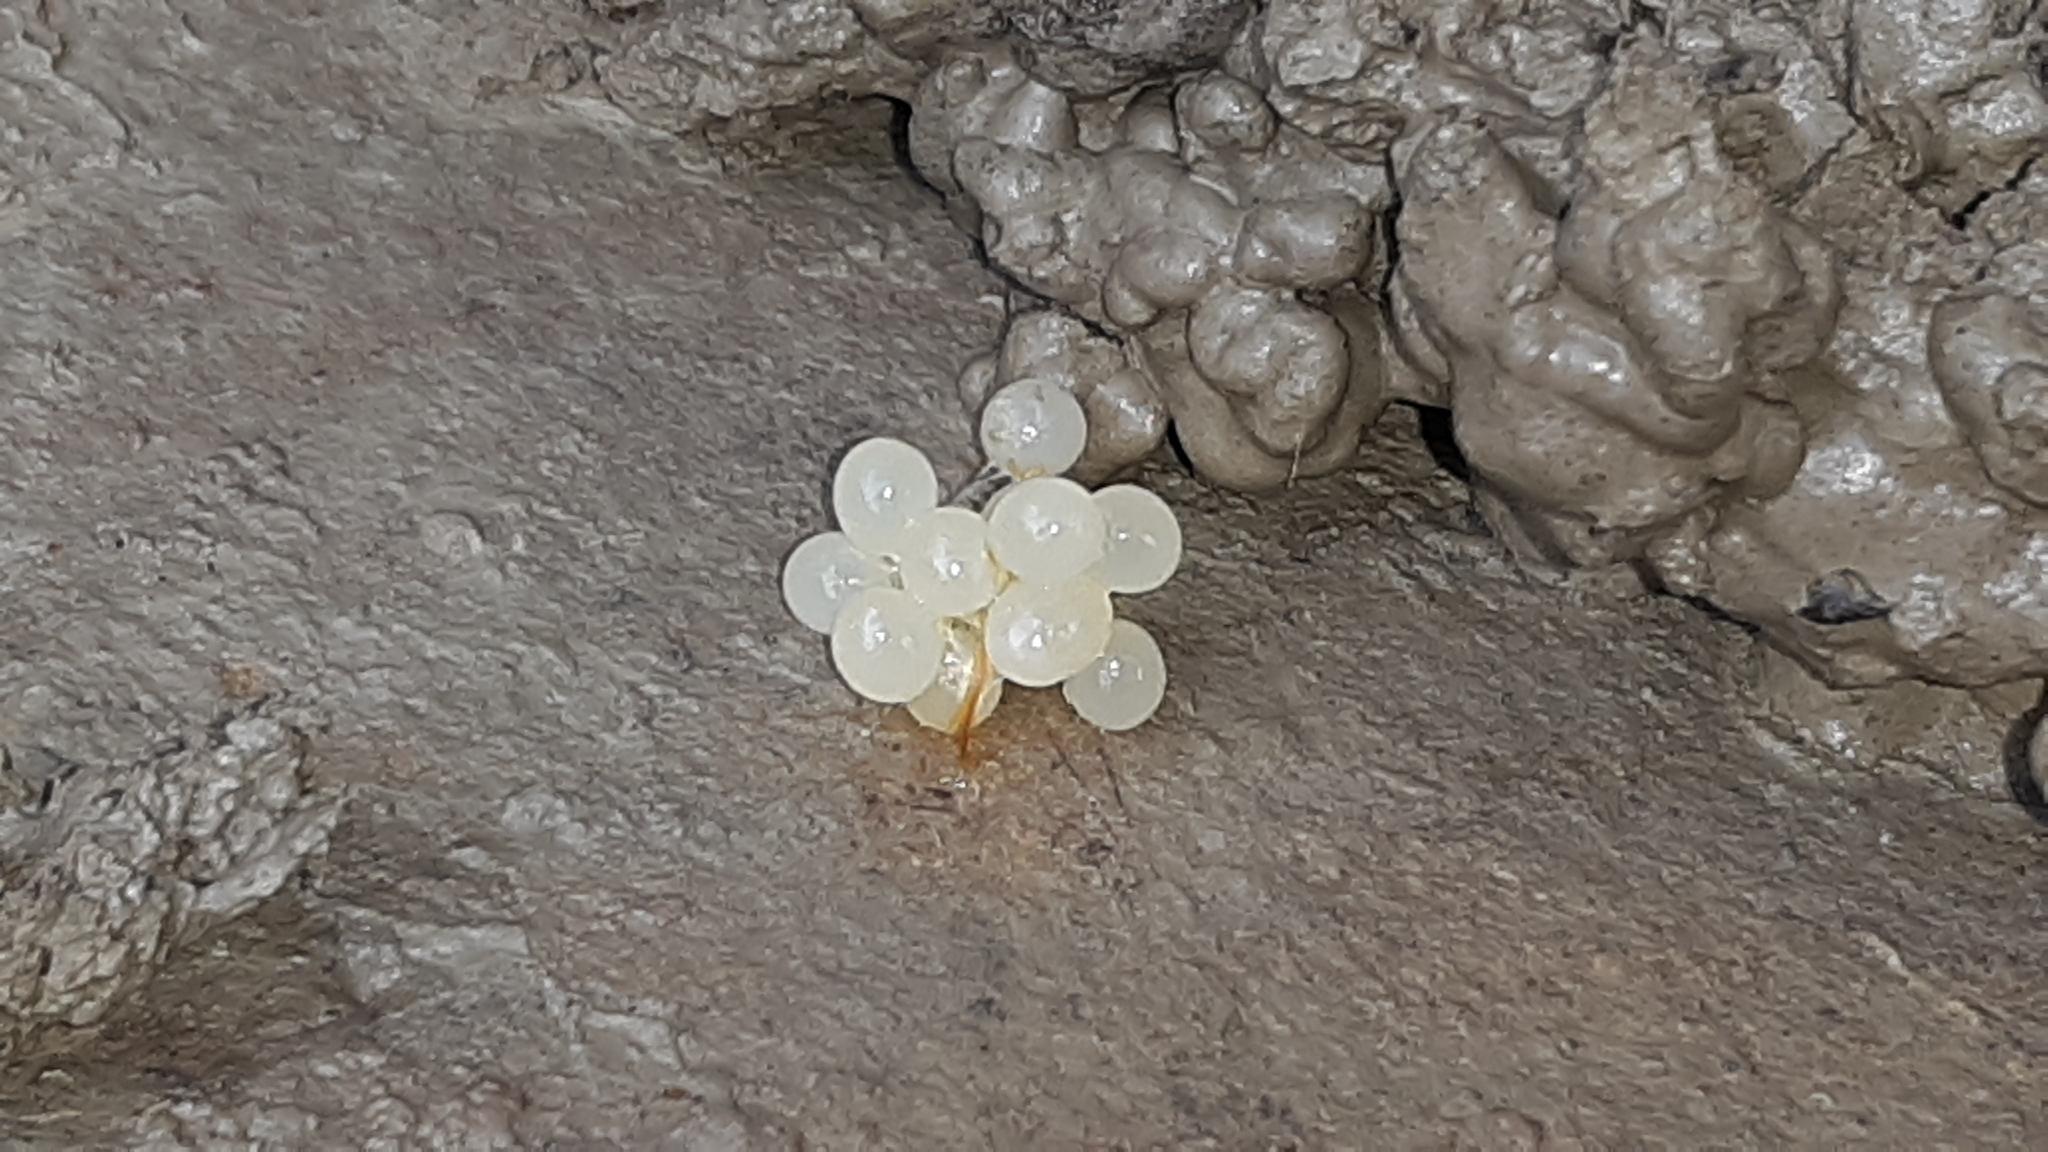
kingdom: Animalia
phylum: Chordata
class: Amphibia
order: Caudata
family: Plethodontidae
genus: Plethodon
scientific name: Plethodon cinereus
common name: Redback salamander
